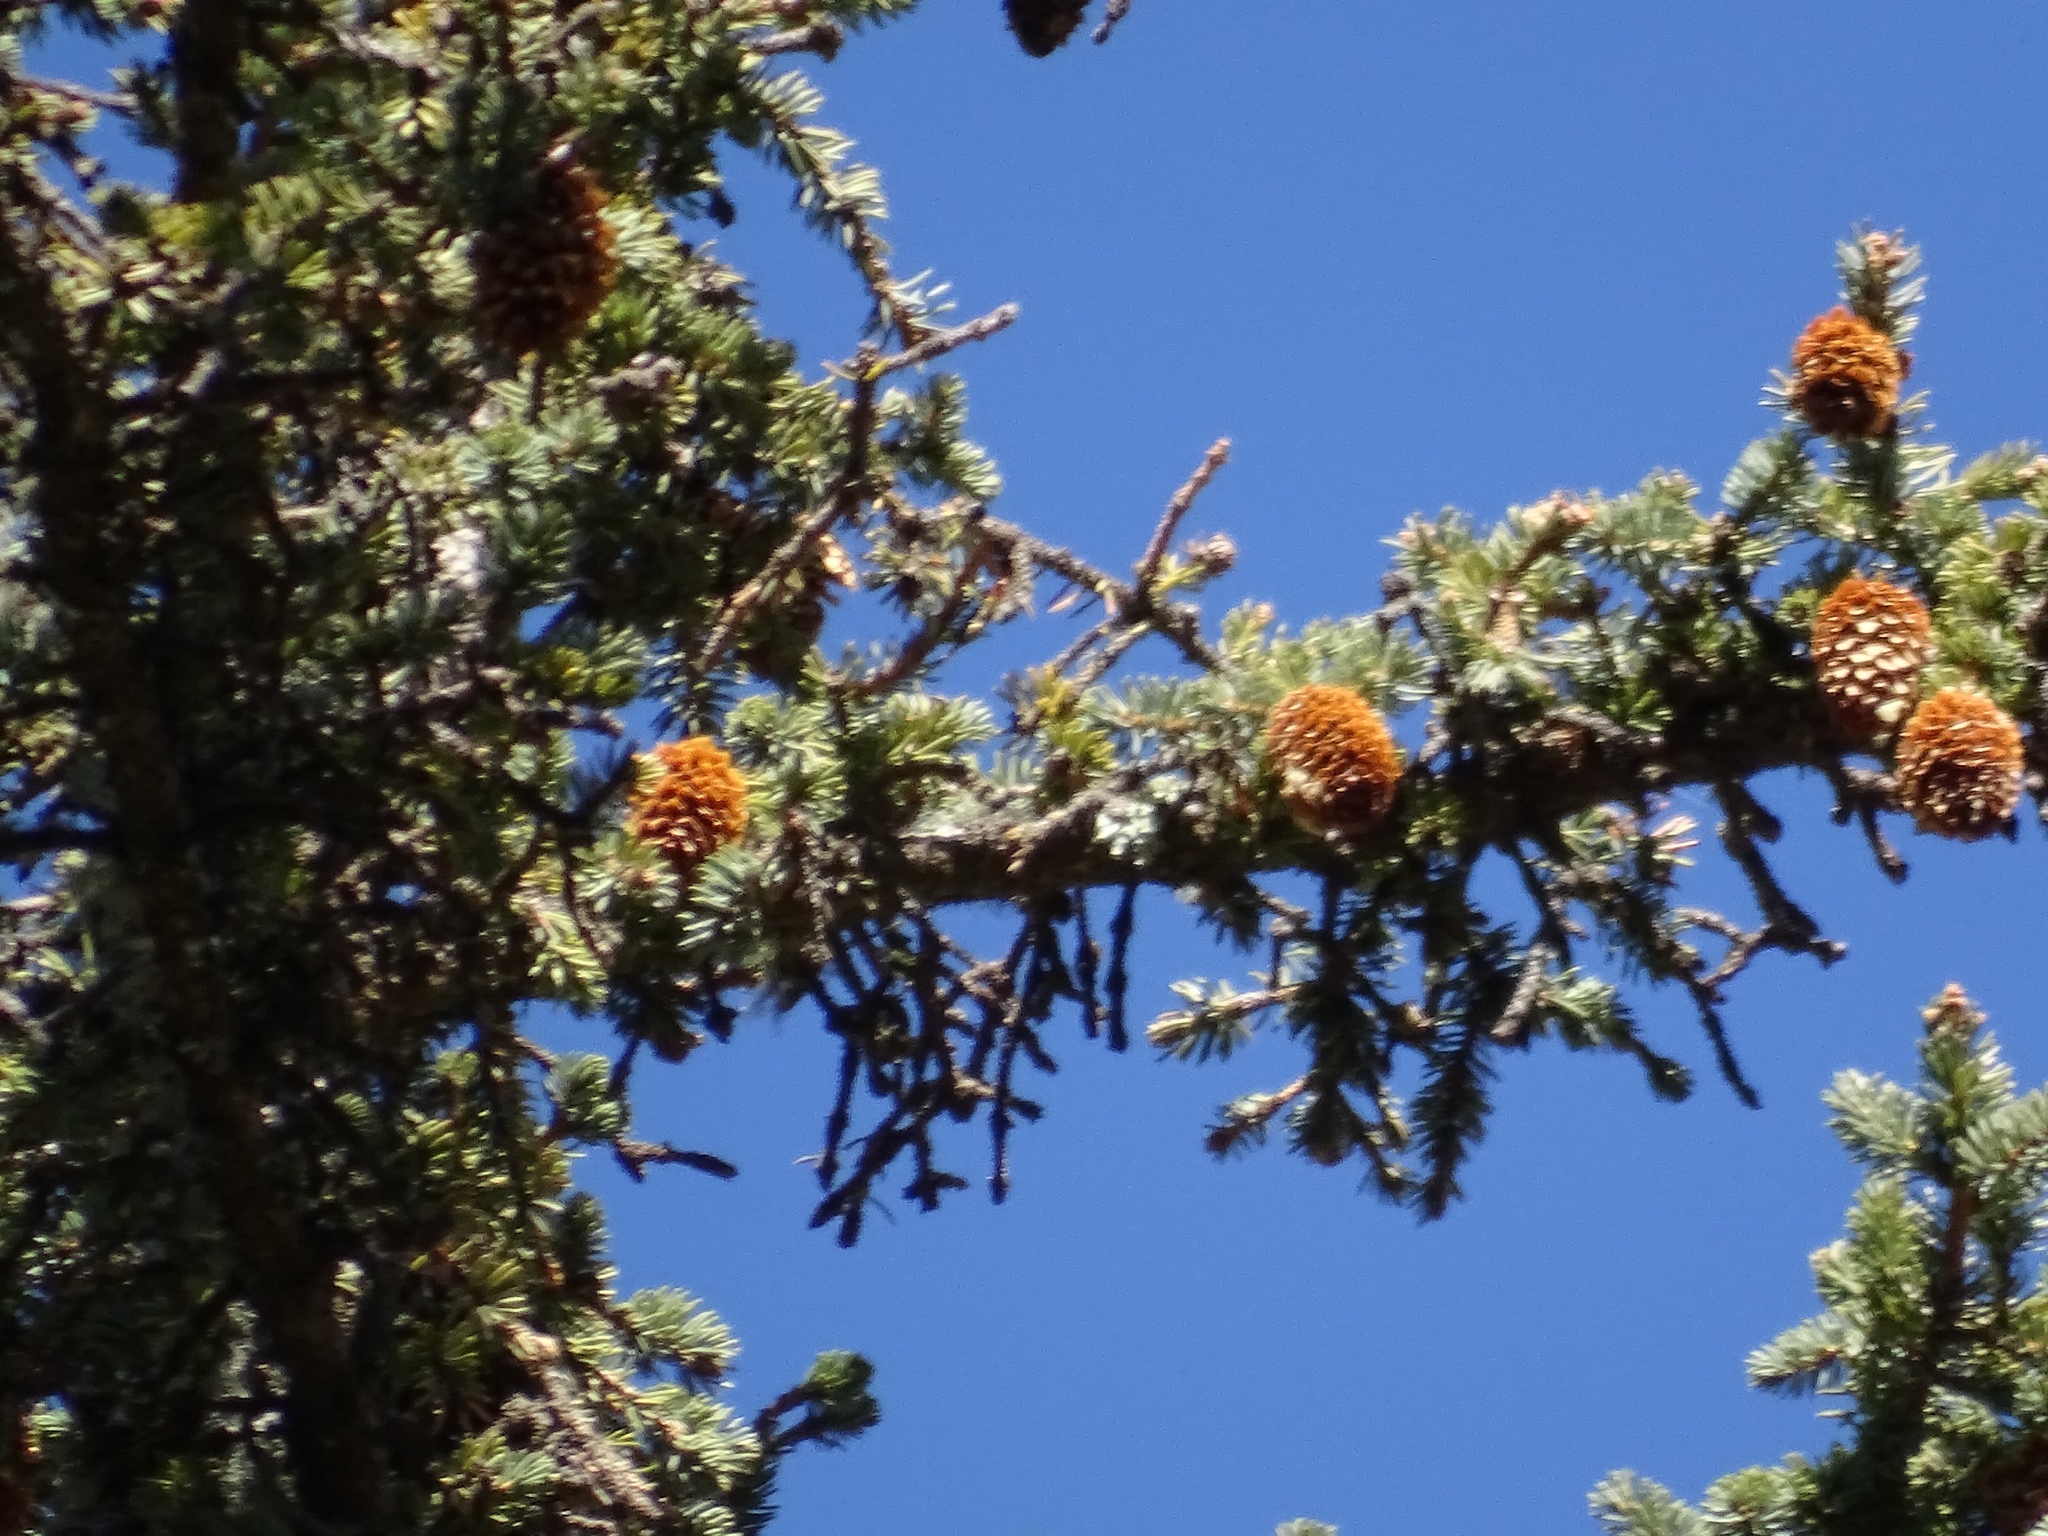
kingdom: Plantae
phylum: Tracheophyta
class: Pinopsida
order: Pinales
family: Pinaceae
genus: Picea
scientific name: Picea engelmannii
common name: Engelmann spruce
